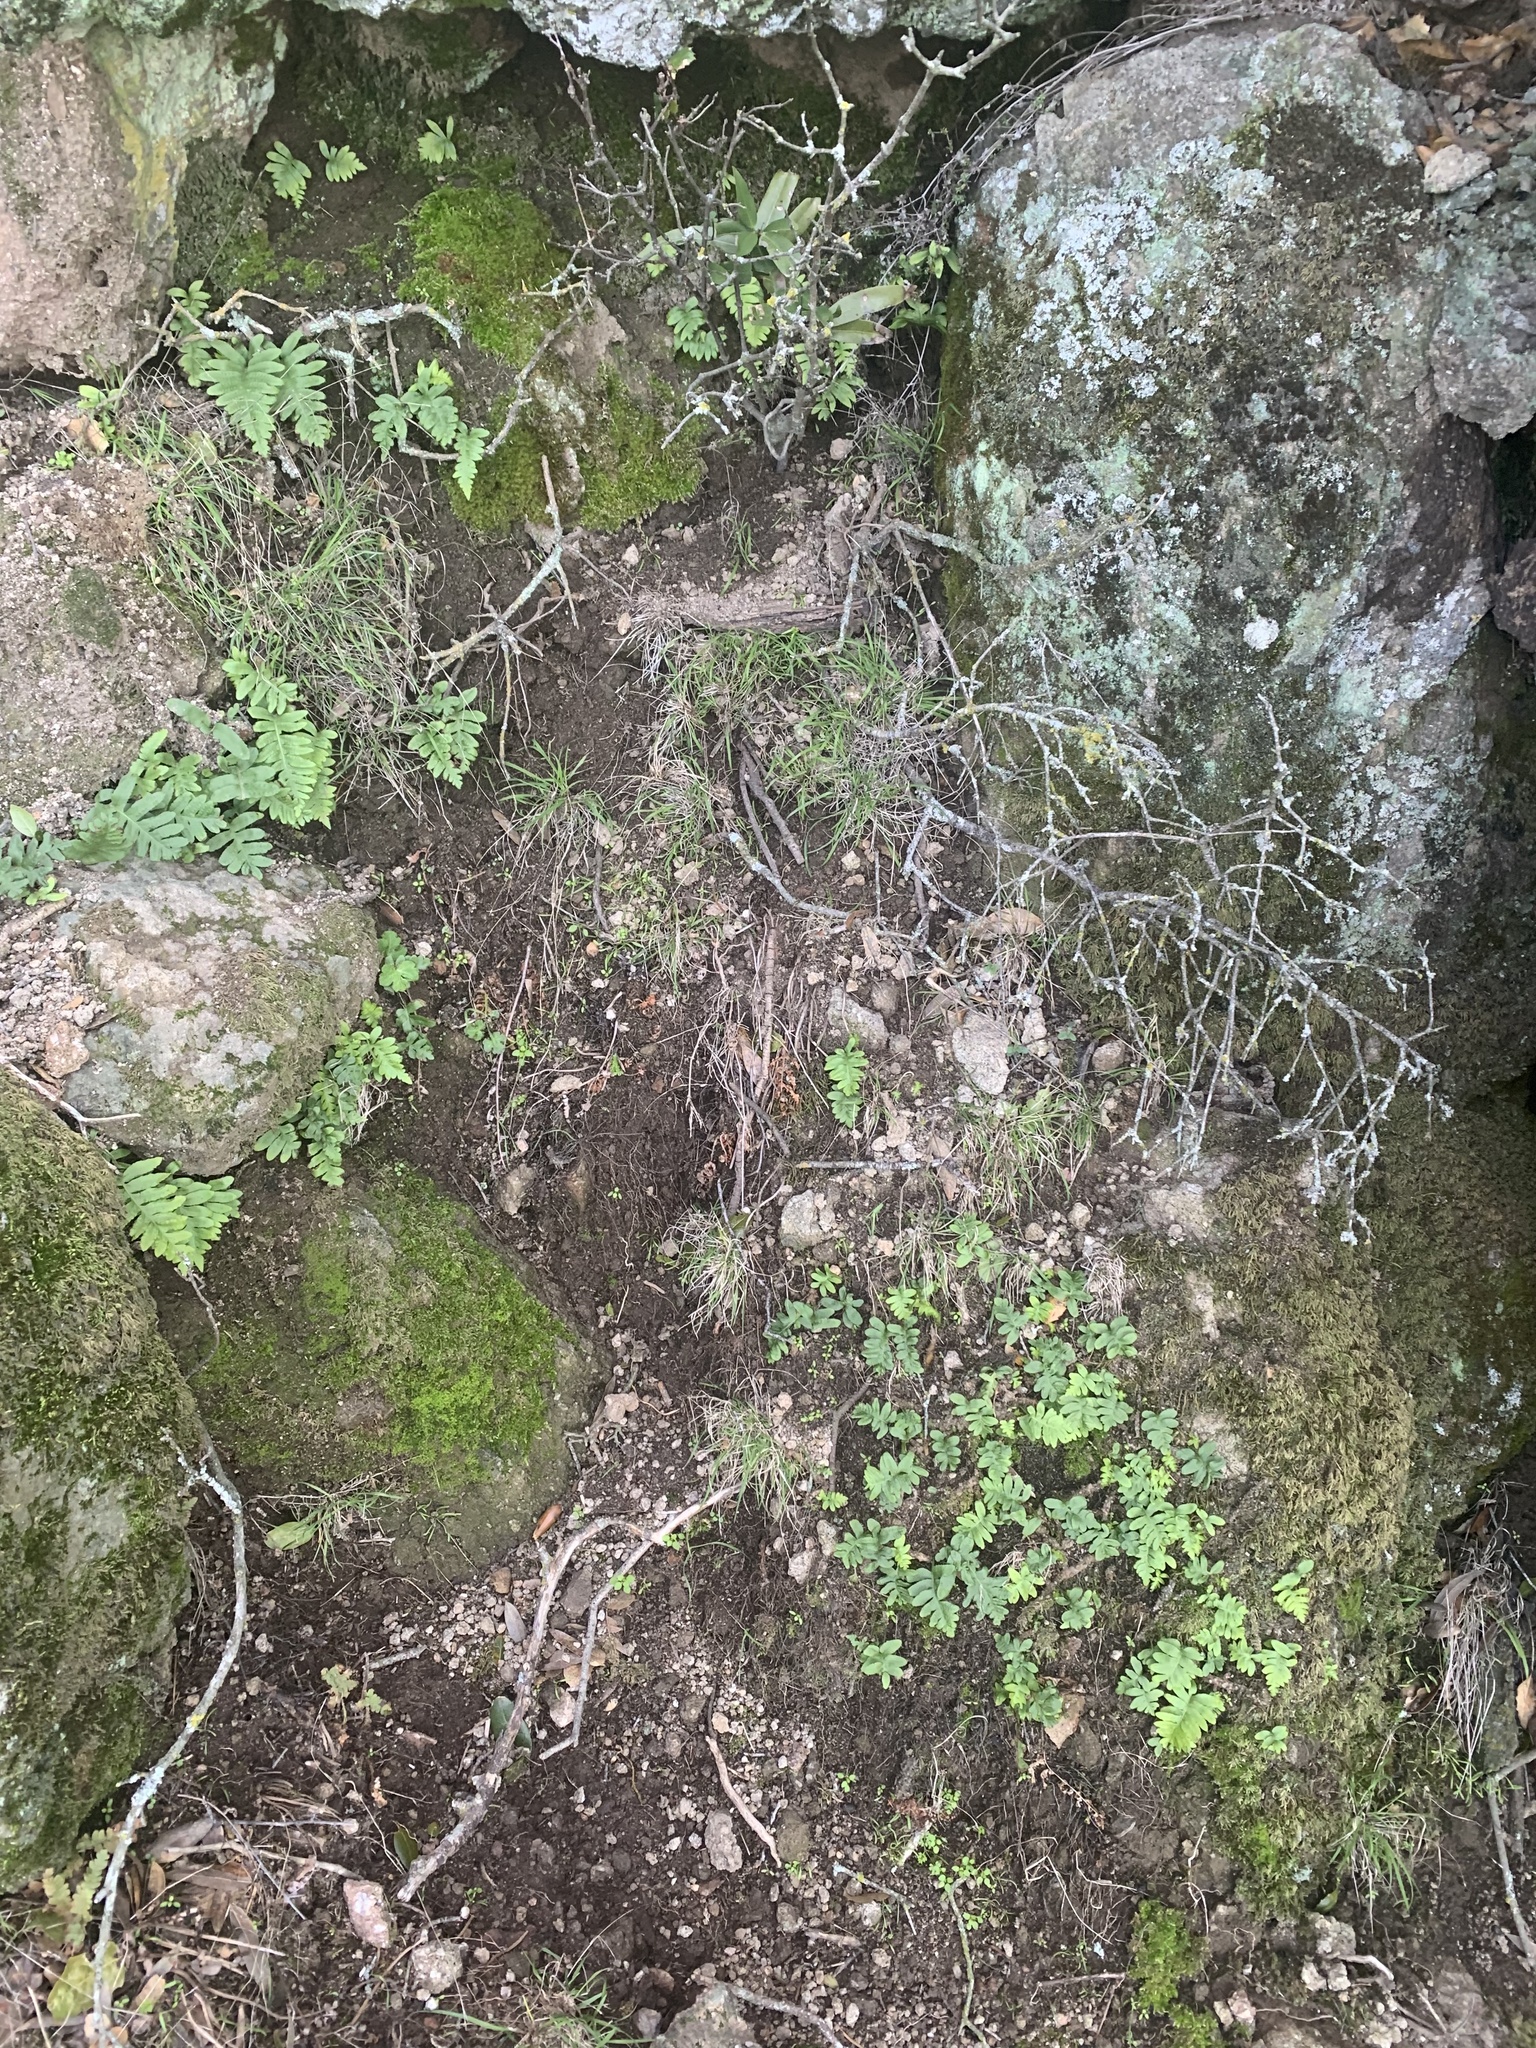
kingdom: Plantae
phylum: Tracheophyta
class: Polypodiopsida
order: Polypodiales
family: Polypodiaceae
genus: Polypodium
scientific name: Polypodium californicum
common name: California polypody
